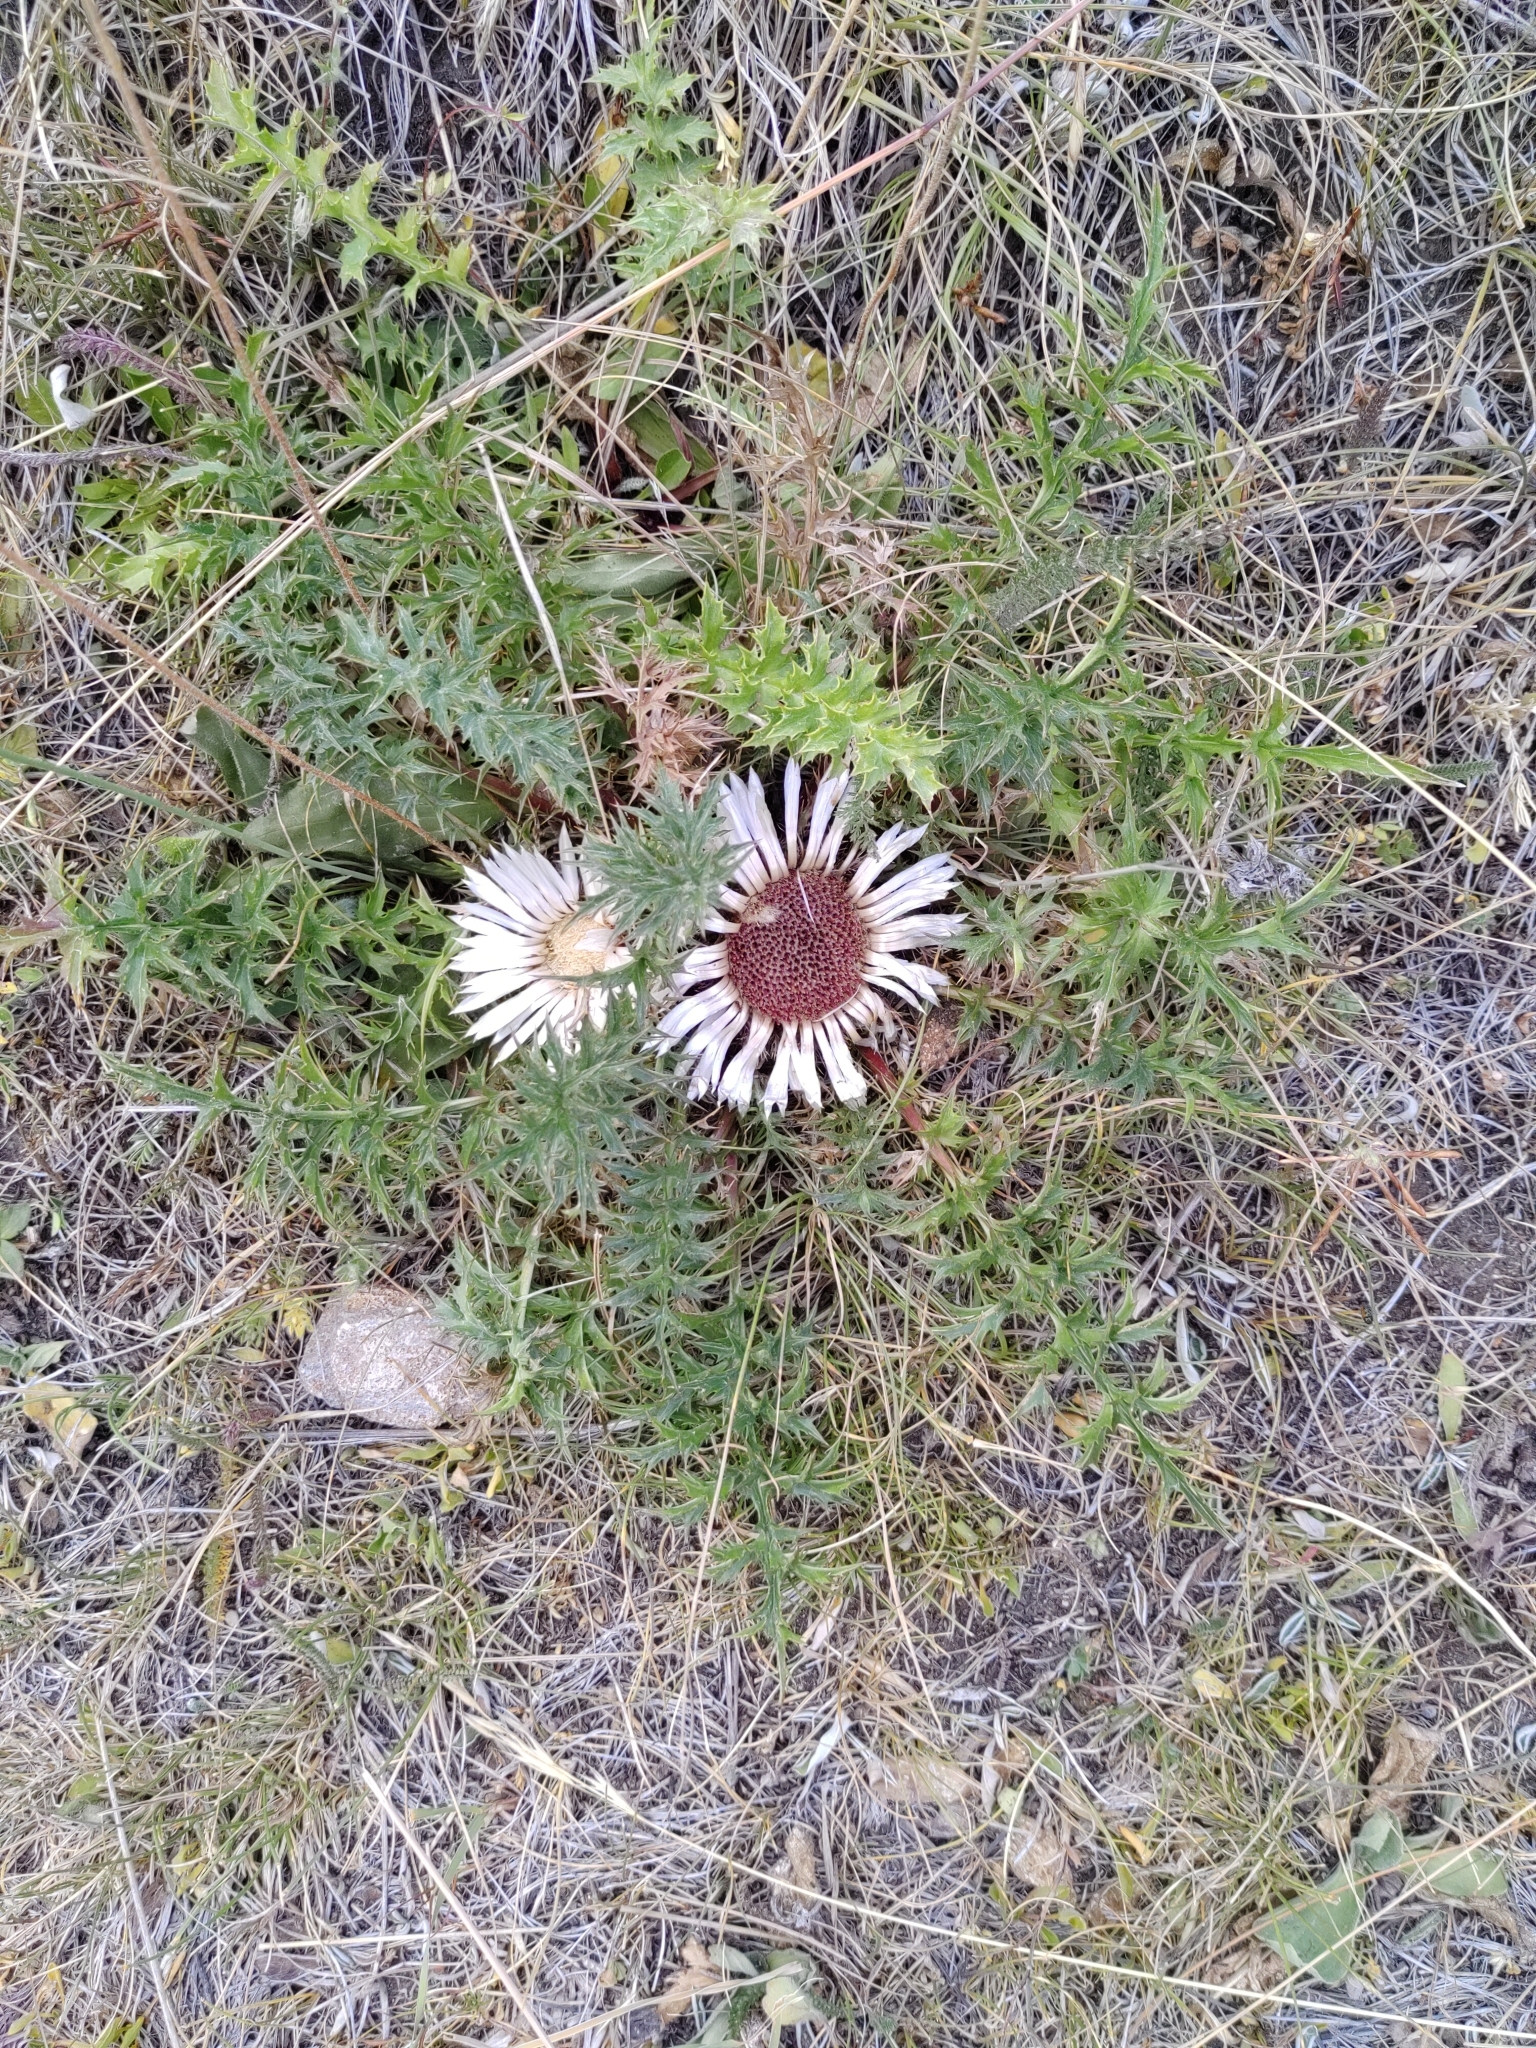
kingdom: Plantae
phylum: Tracheophyta
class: Magnoliopsida
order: Asterales
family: Asteraceae
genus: Carlina
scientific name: Carlina acaulis
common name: Stemless carline thistle
